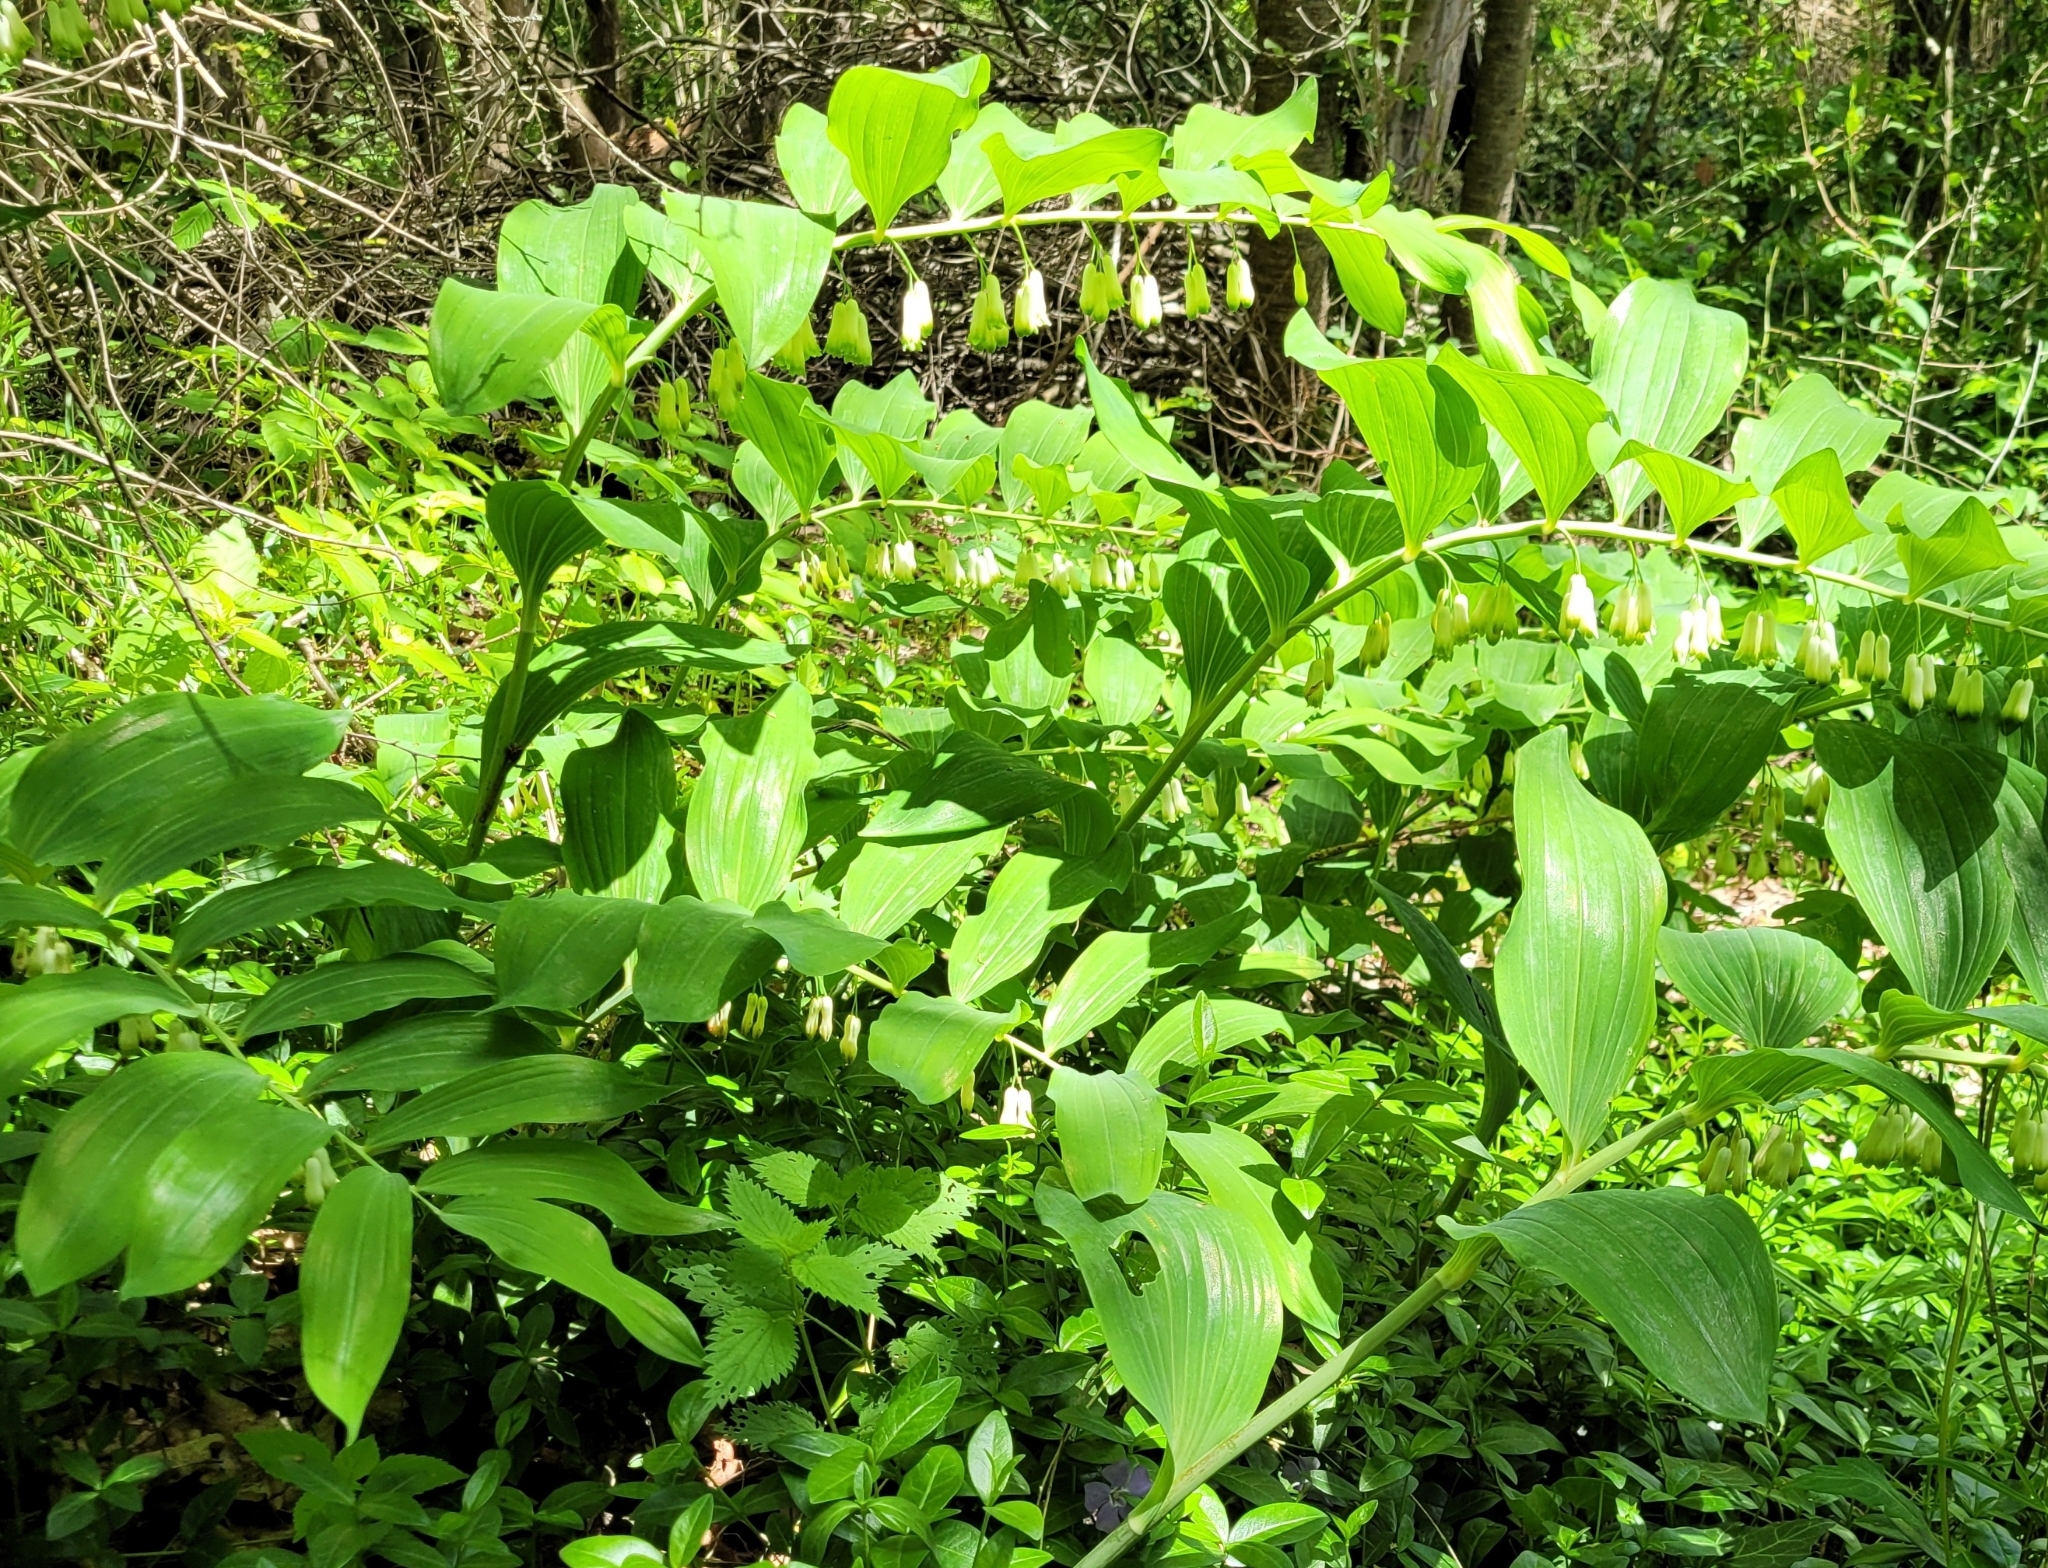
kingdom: Plantae
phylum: Tracheophyta
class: Liliopsida
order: Asparagales
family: Asparagaceae
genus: Polygonatum
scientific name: Polygonatum multiflorum
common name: Solomon's-seal
